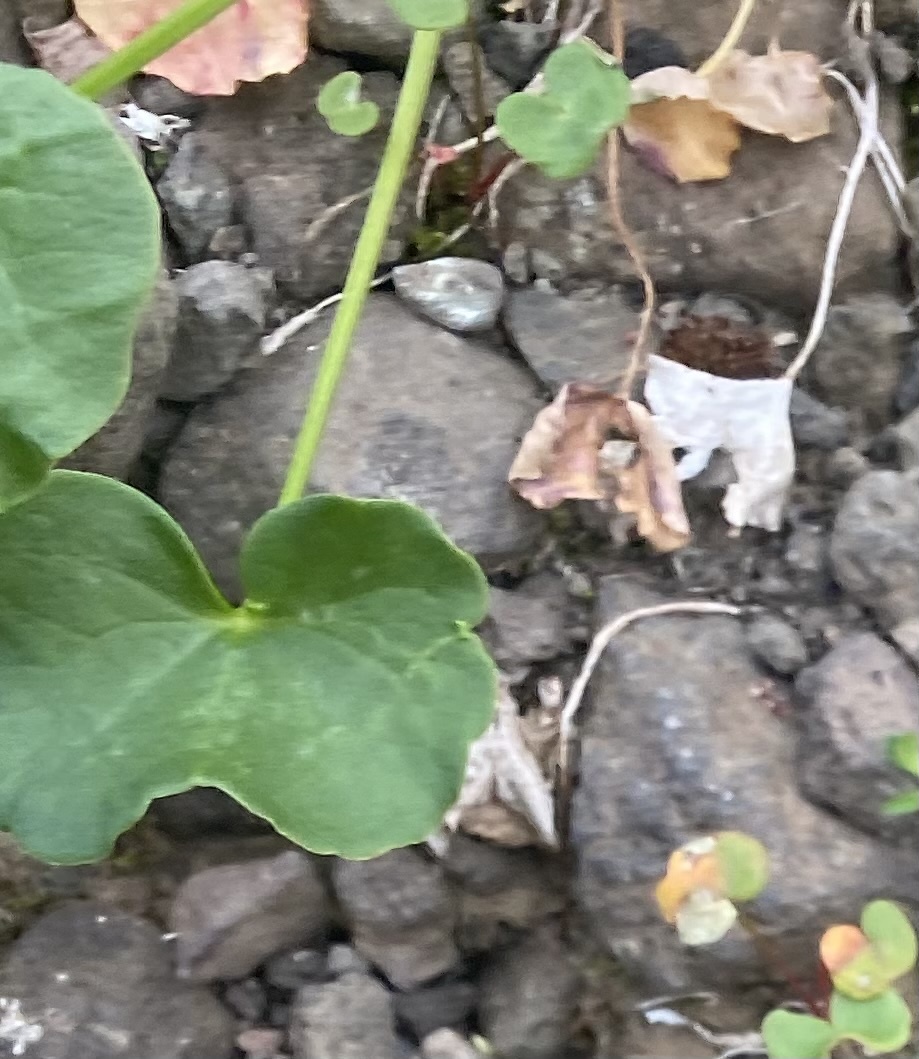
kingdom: Plantae
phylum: Tracheophyta
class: Magnoliopsida
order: Caryophyllales
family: Polygonaceae
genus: Oxyria
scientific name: Oxyria digyna
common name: Alpine mountain-sorrel
